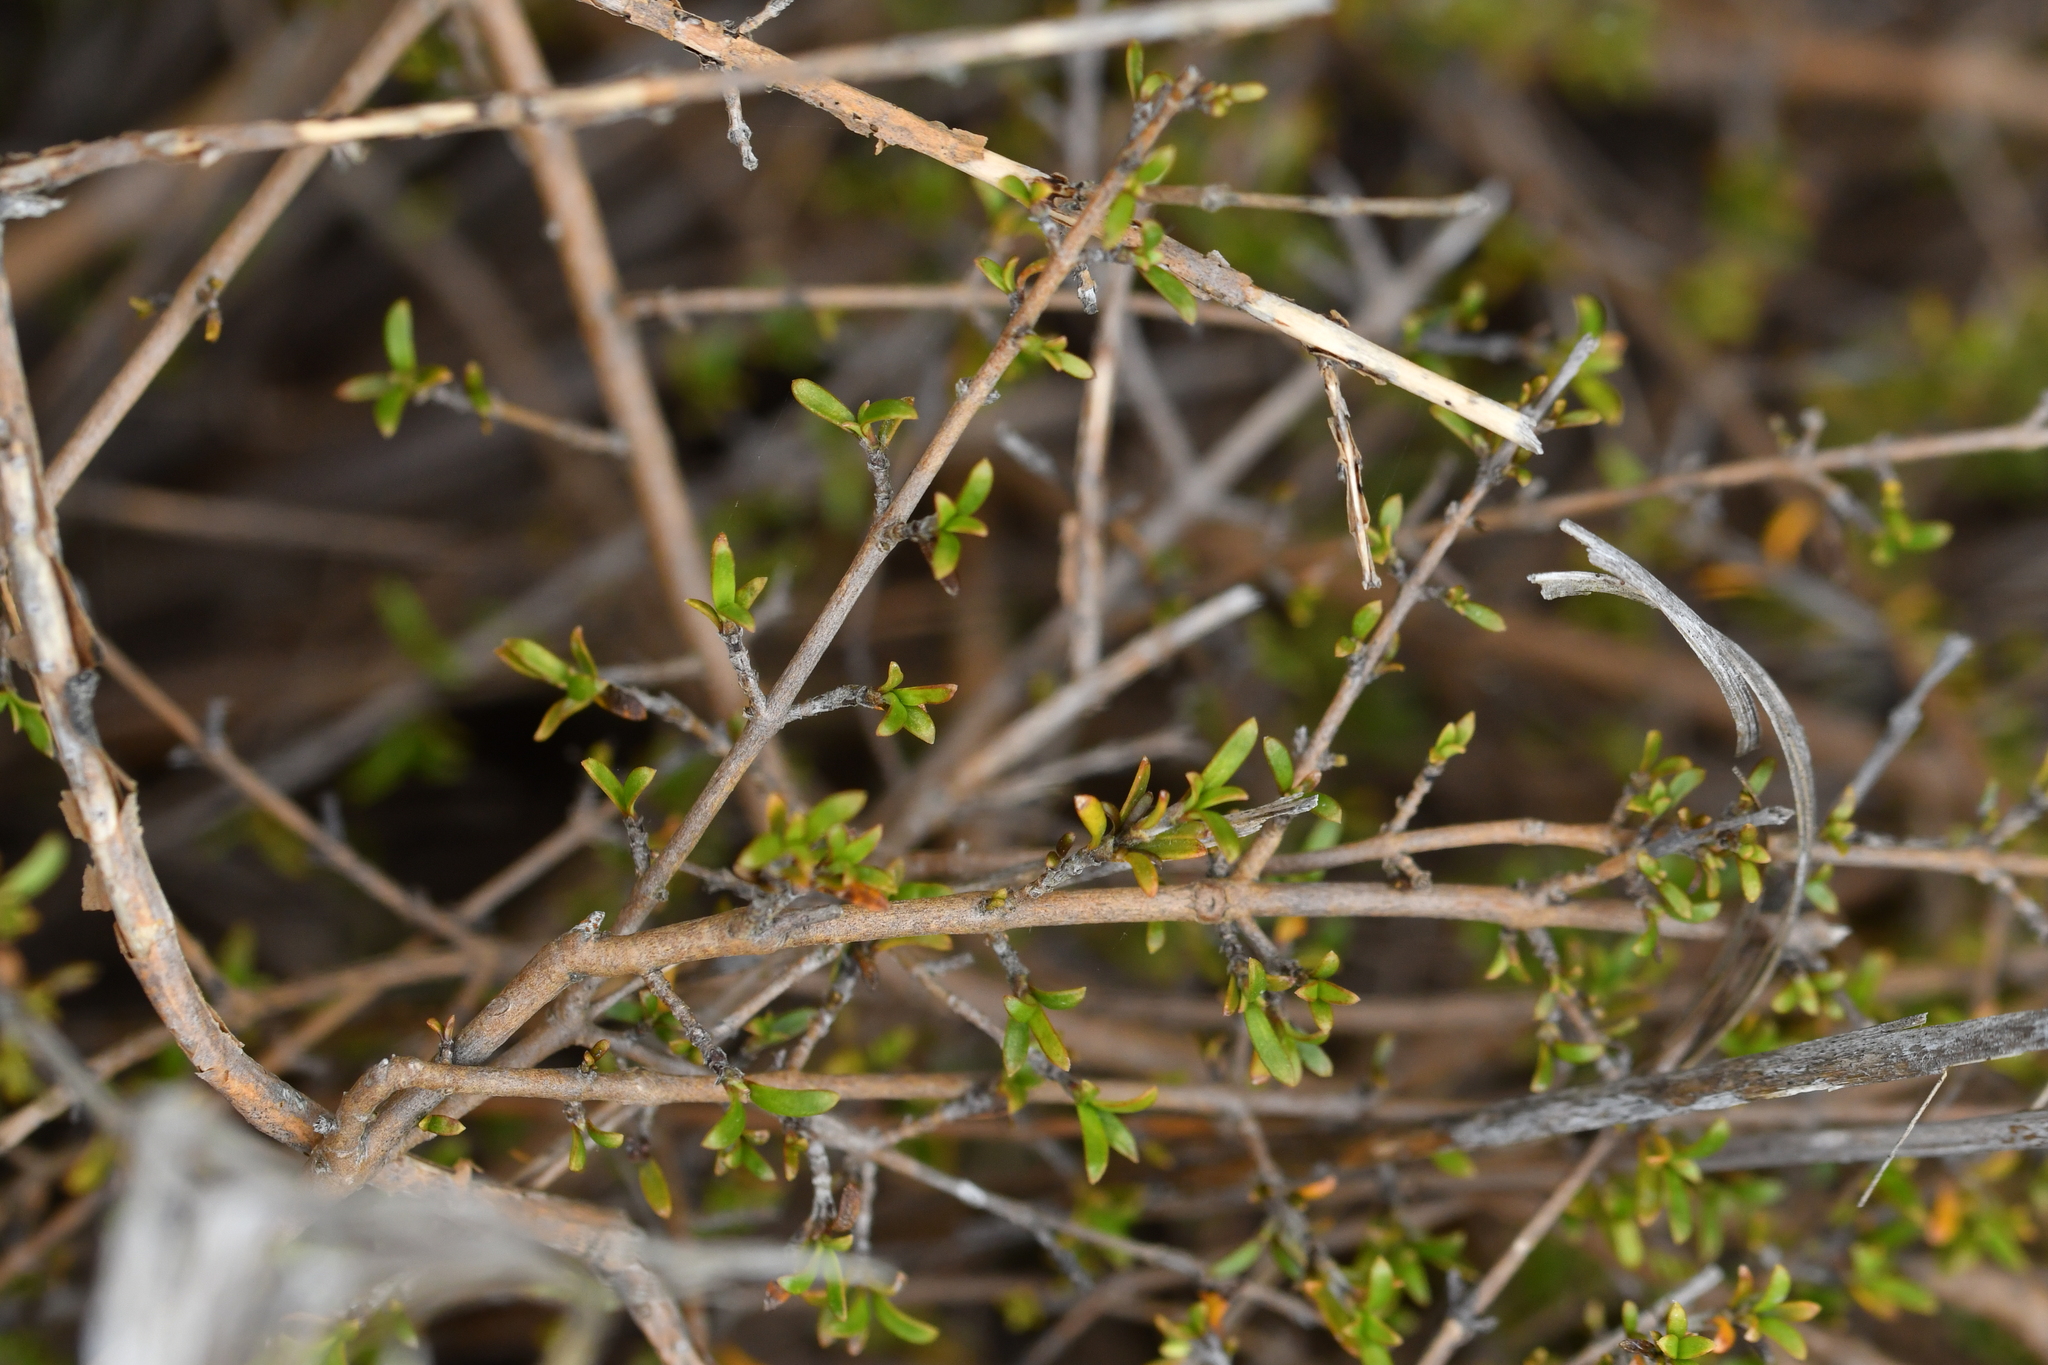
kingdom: Plantae
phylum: Tracheophyta
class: Magnoliopsida
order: Gentianales
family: Rubiaceae
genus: Coprosma
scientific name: Coprosma cheesemanii
